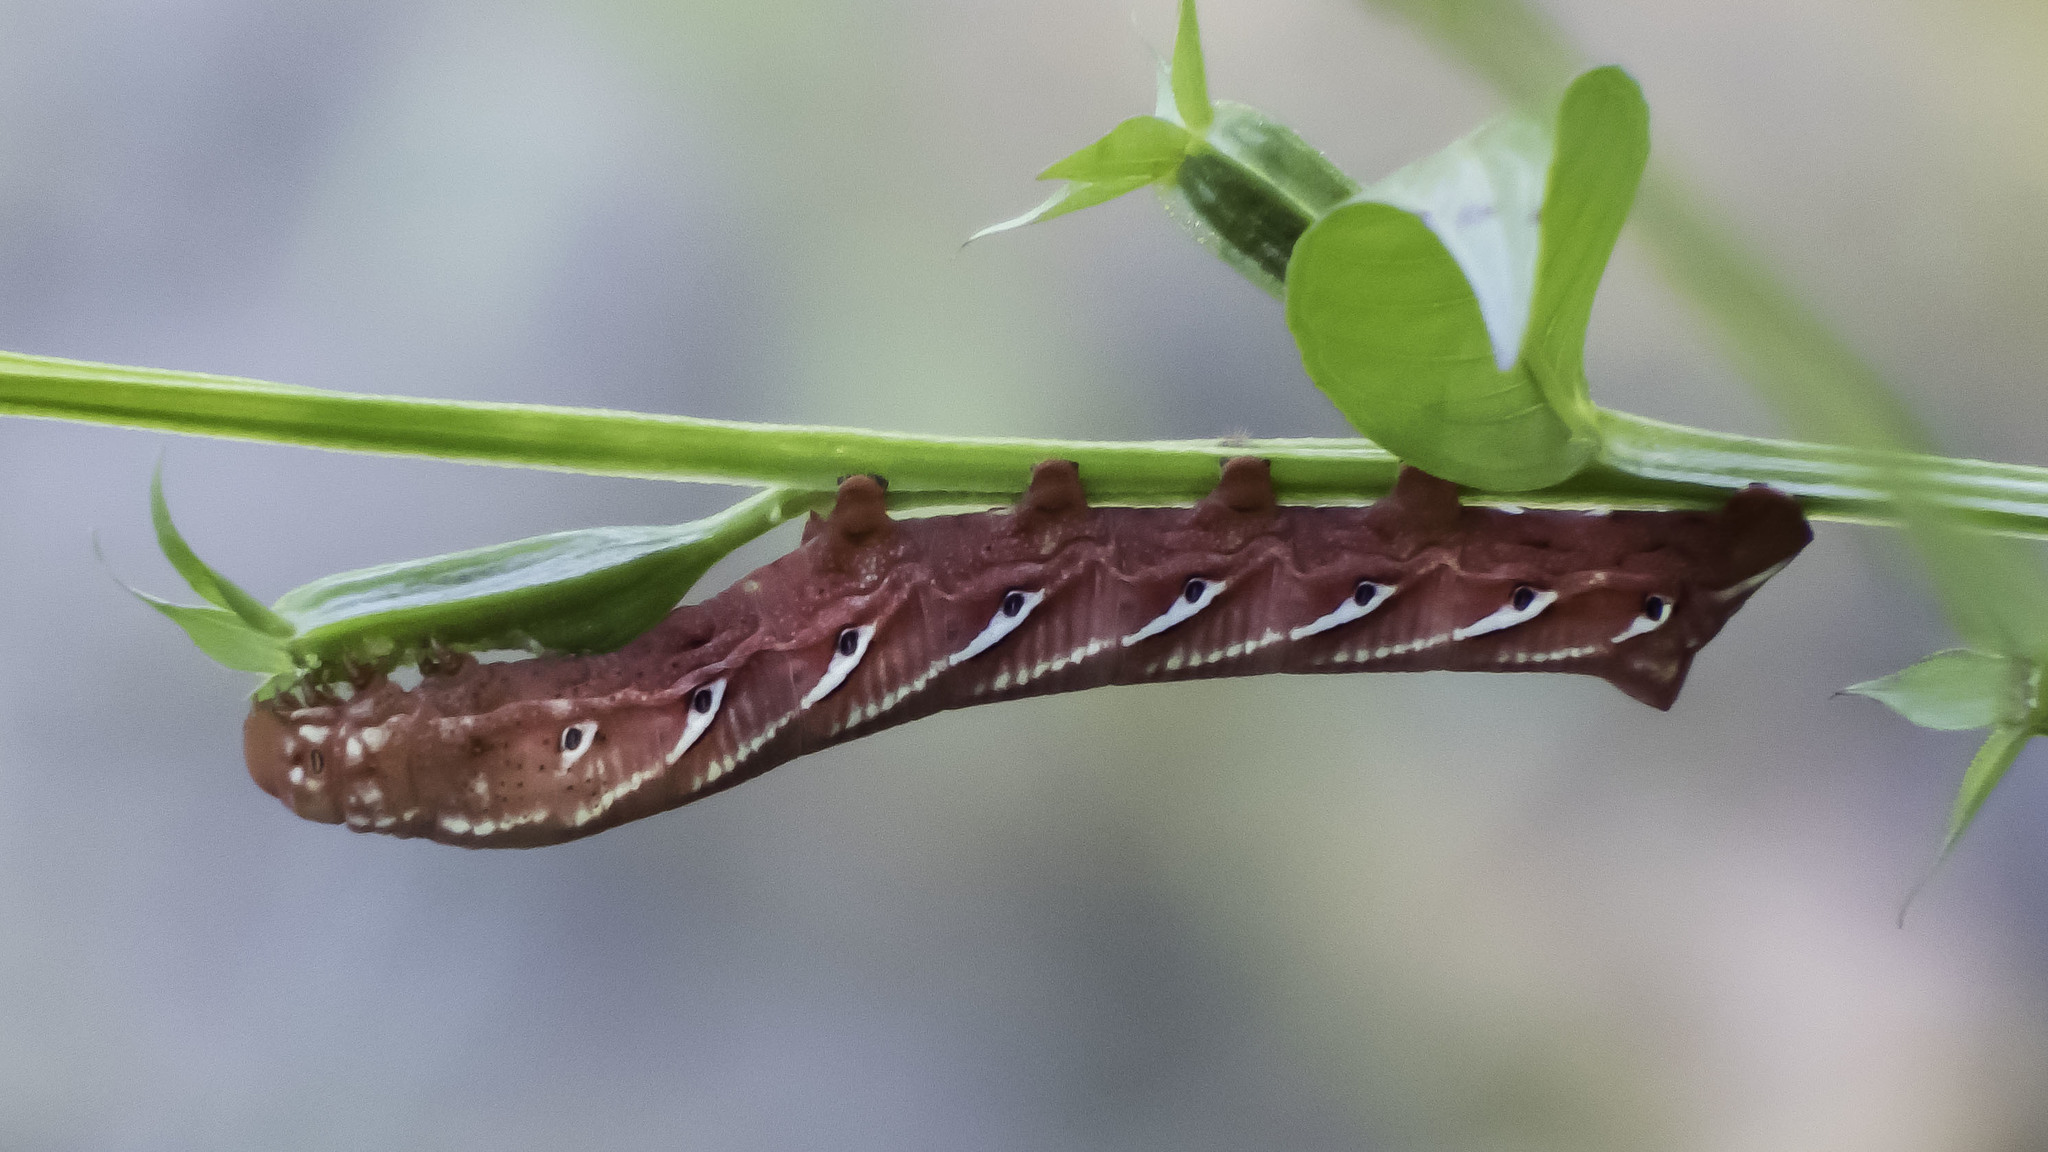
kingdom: Animalia
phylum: Arthropoda
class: Insecta
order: Lepidoptera
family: Sphingidae
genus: Eumorpha
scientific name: Eumorpha fasciatus
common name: Banded sphinx
